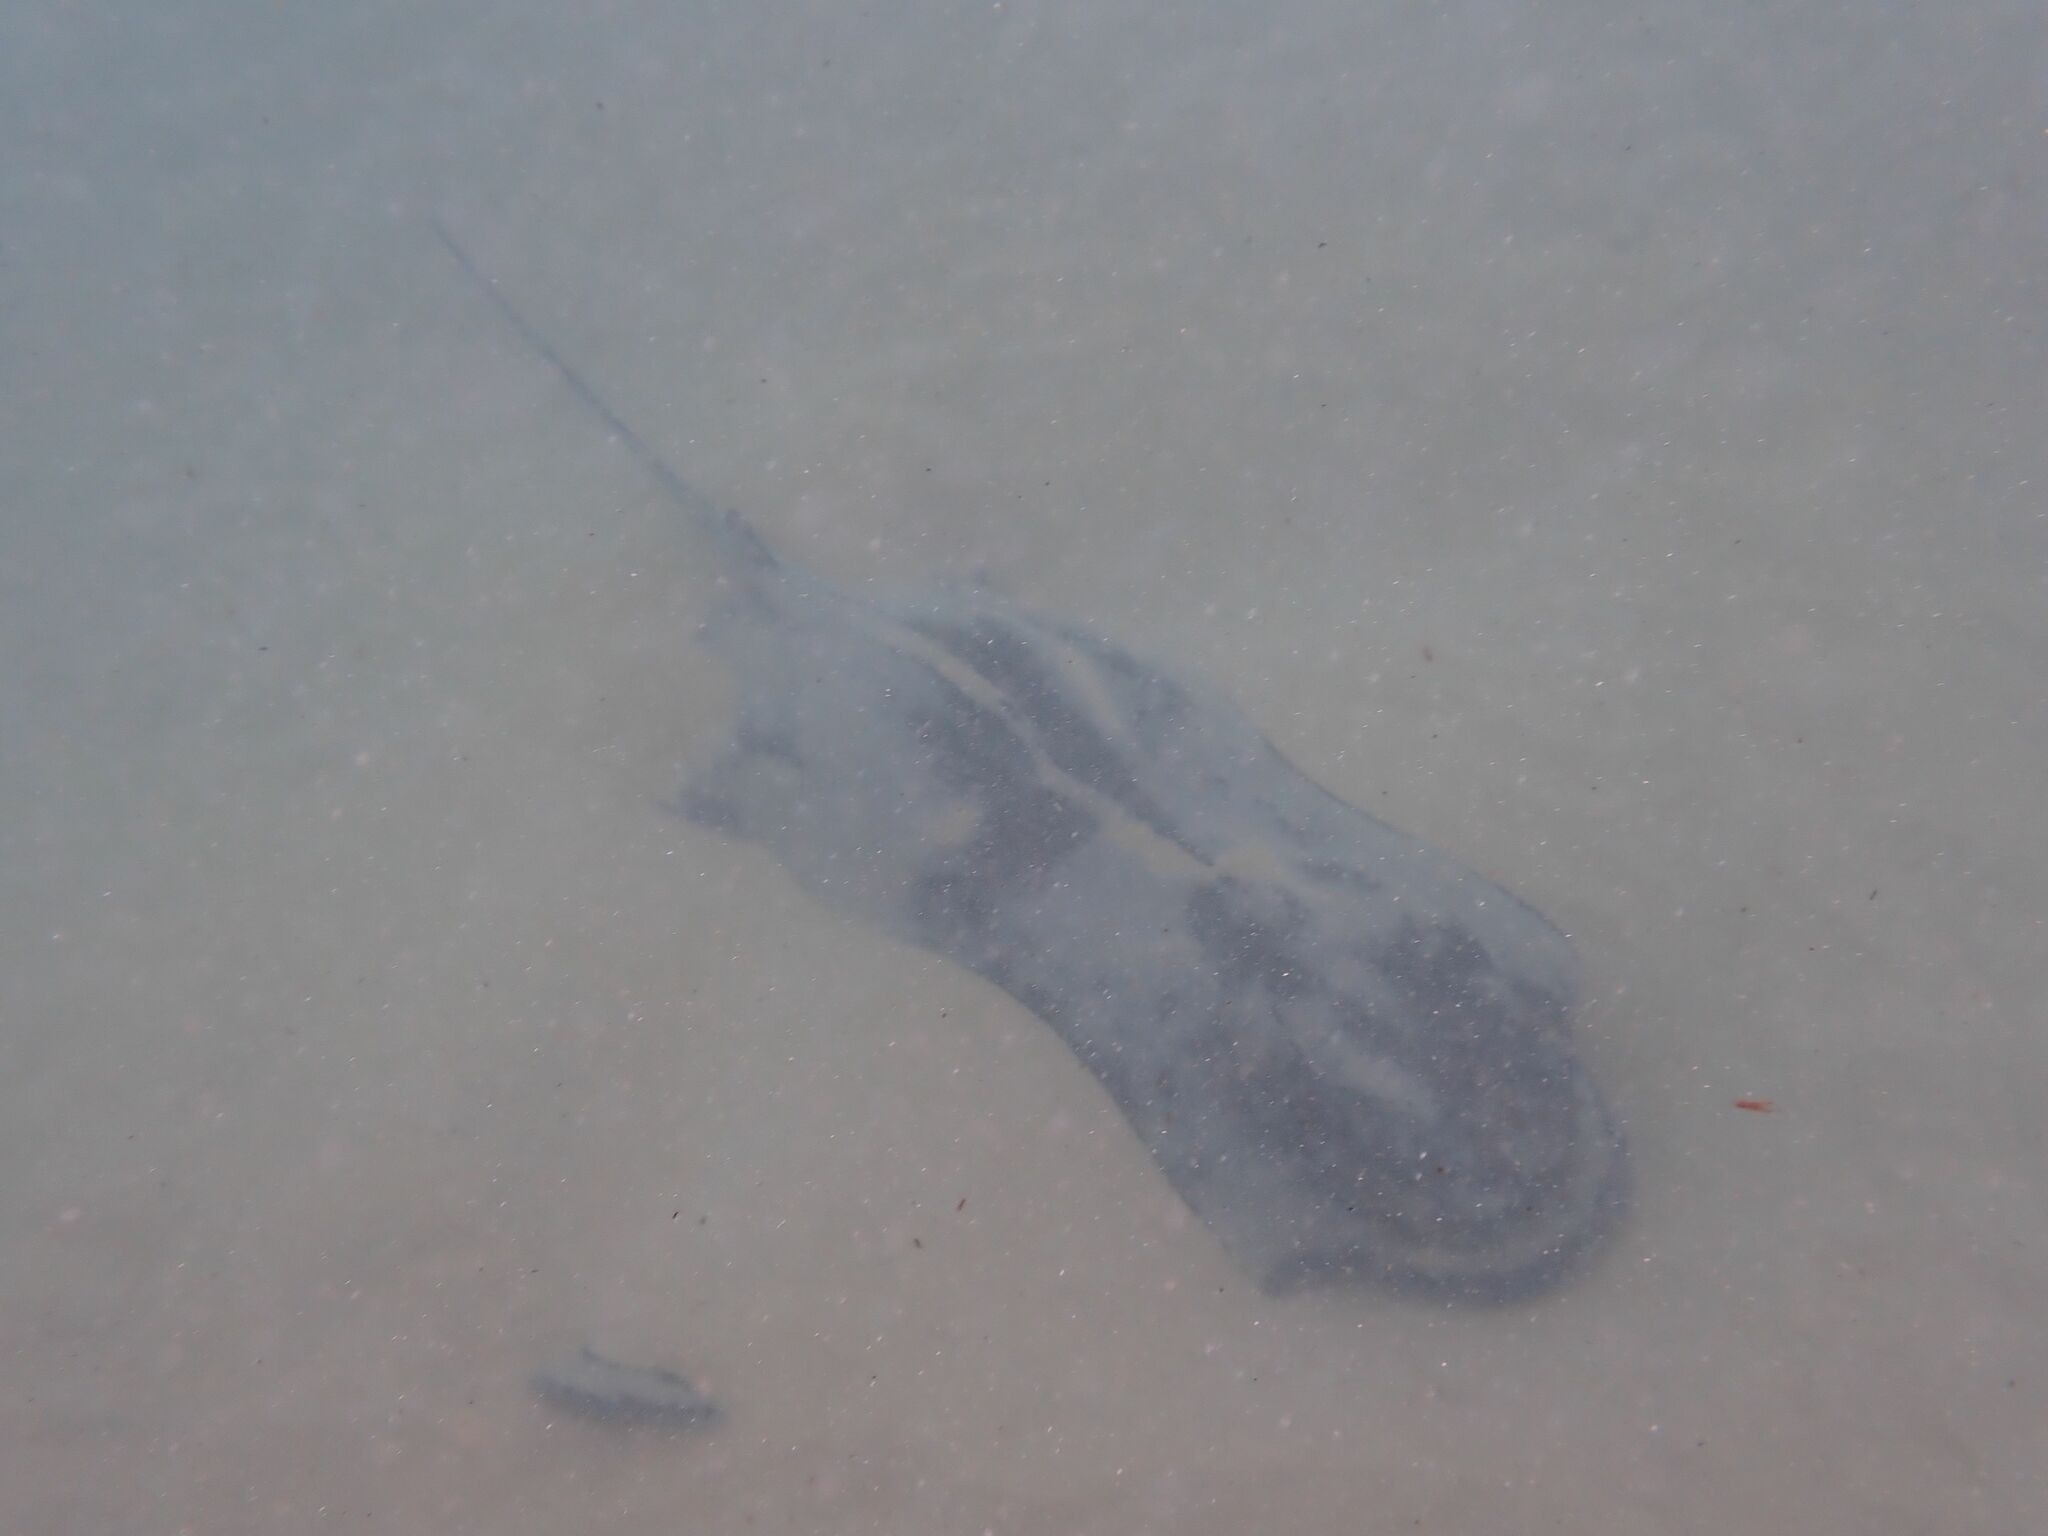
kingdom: Animalia
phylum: Chordata
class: Elasmobranchii
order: Myliobatiformes
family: Myliobatidae
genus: Myliobatis
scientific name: Myliobatis tenuicaudatus
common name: Eagle ray
